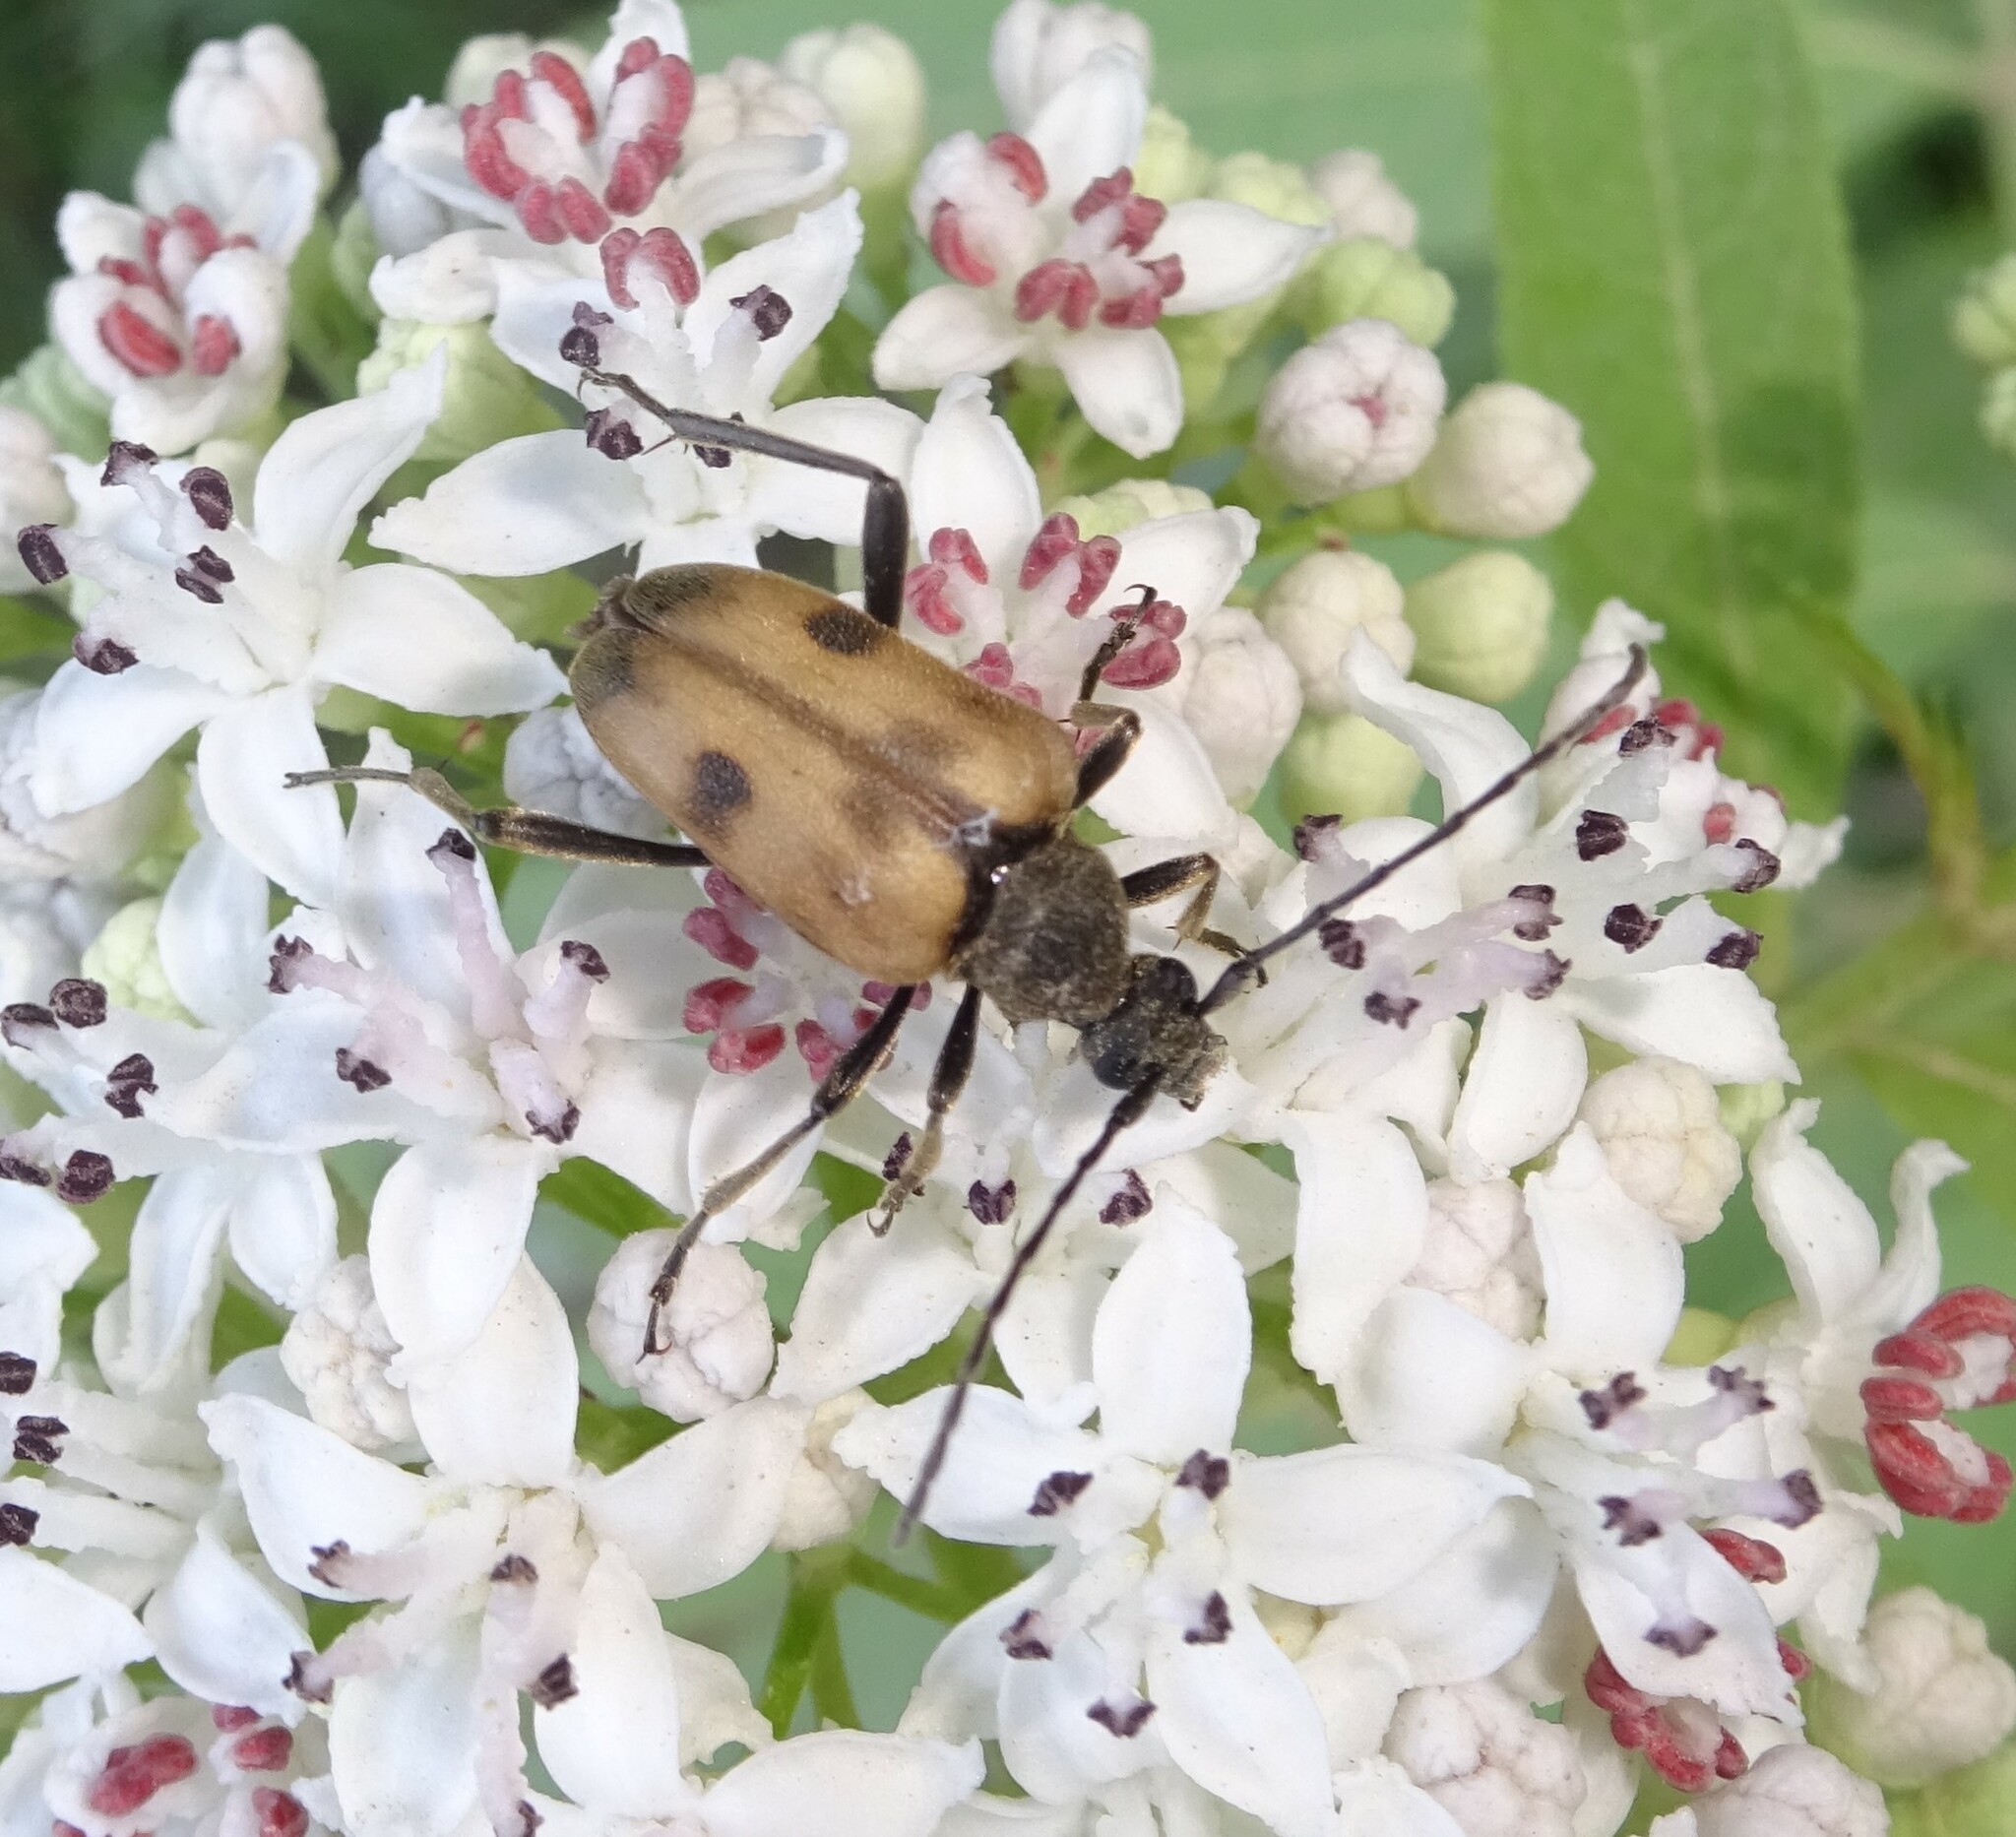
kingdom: Animalia
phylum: Arthropoda
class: Insecta
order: Coleoptera
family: Cerambycidae
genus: Pachytodes
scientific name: Pachytodes cerambyciformis
